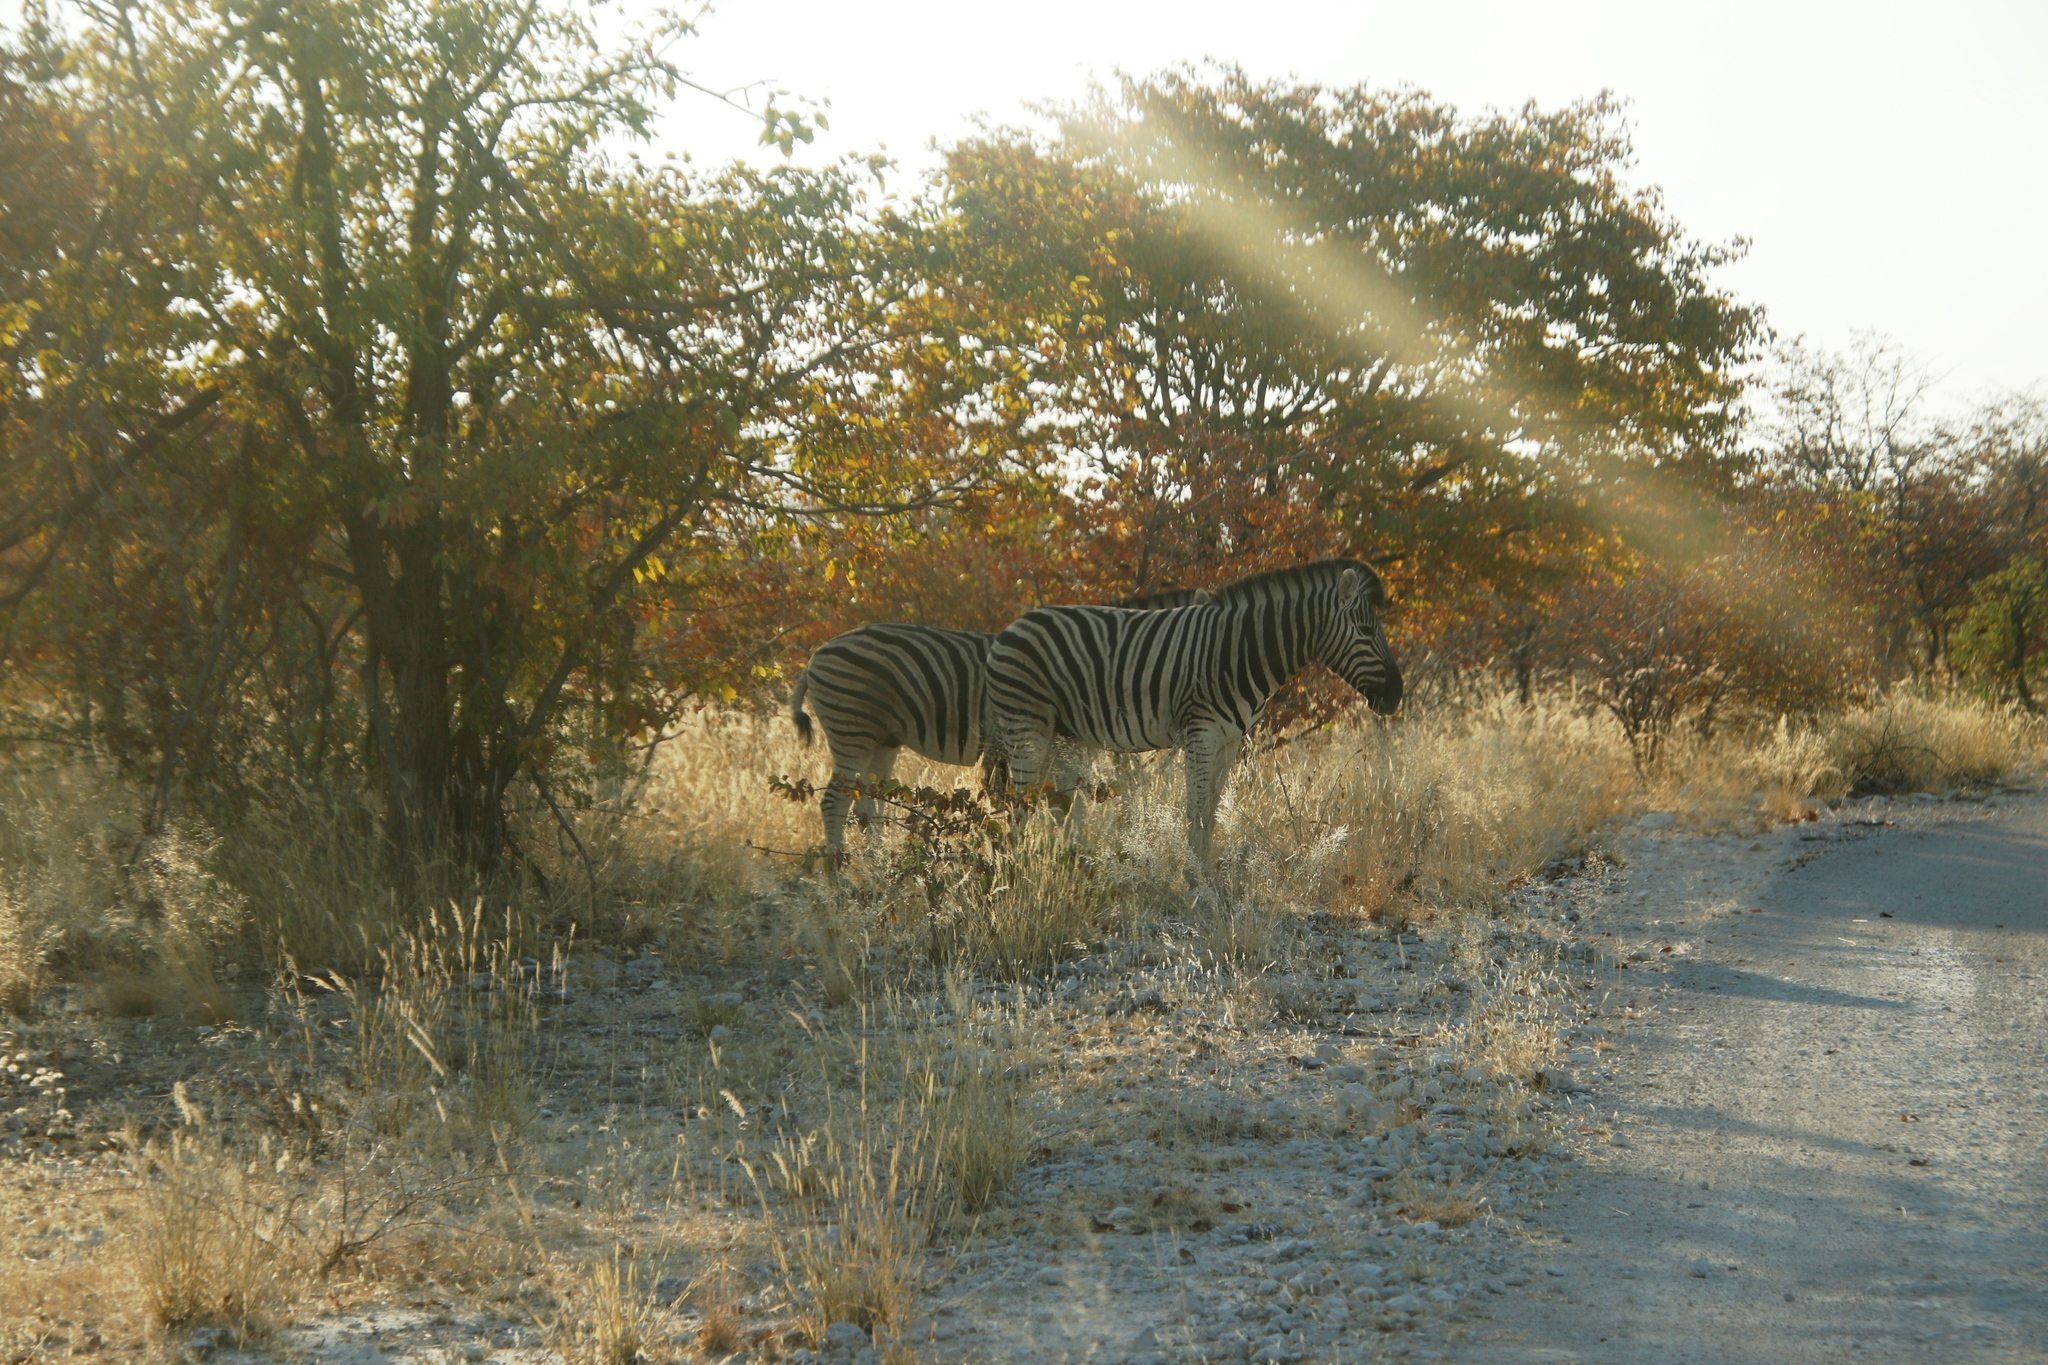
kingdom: Animalia
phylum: Chordata
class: Mammalia
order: Perissodactyla
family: Equidae
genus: Equus
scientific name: Equus quagga
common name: Plains zebra
